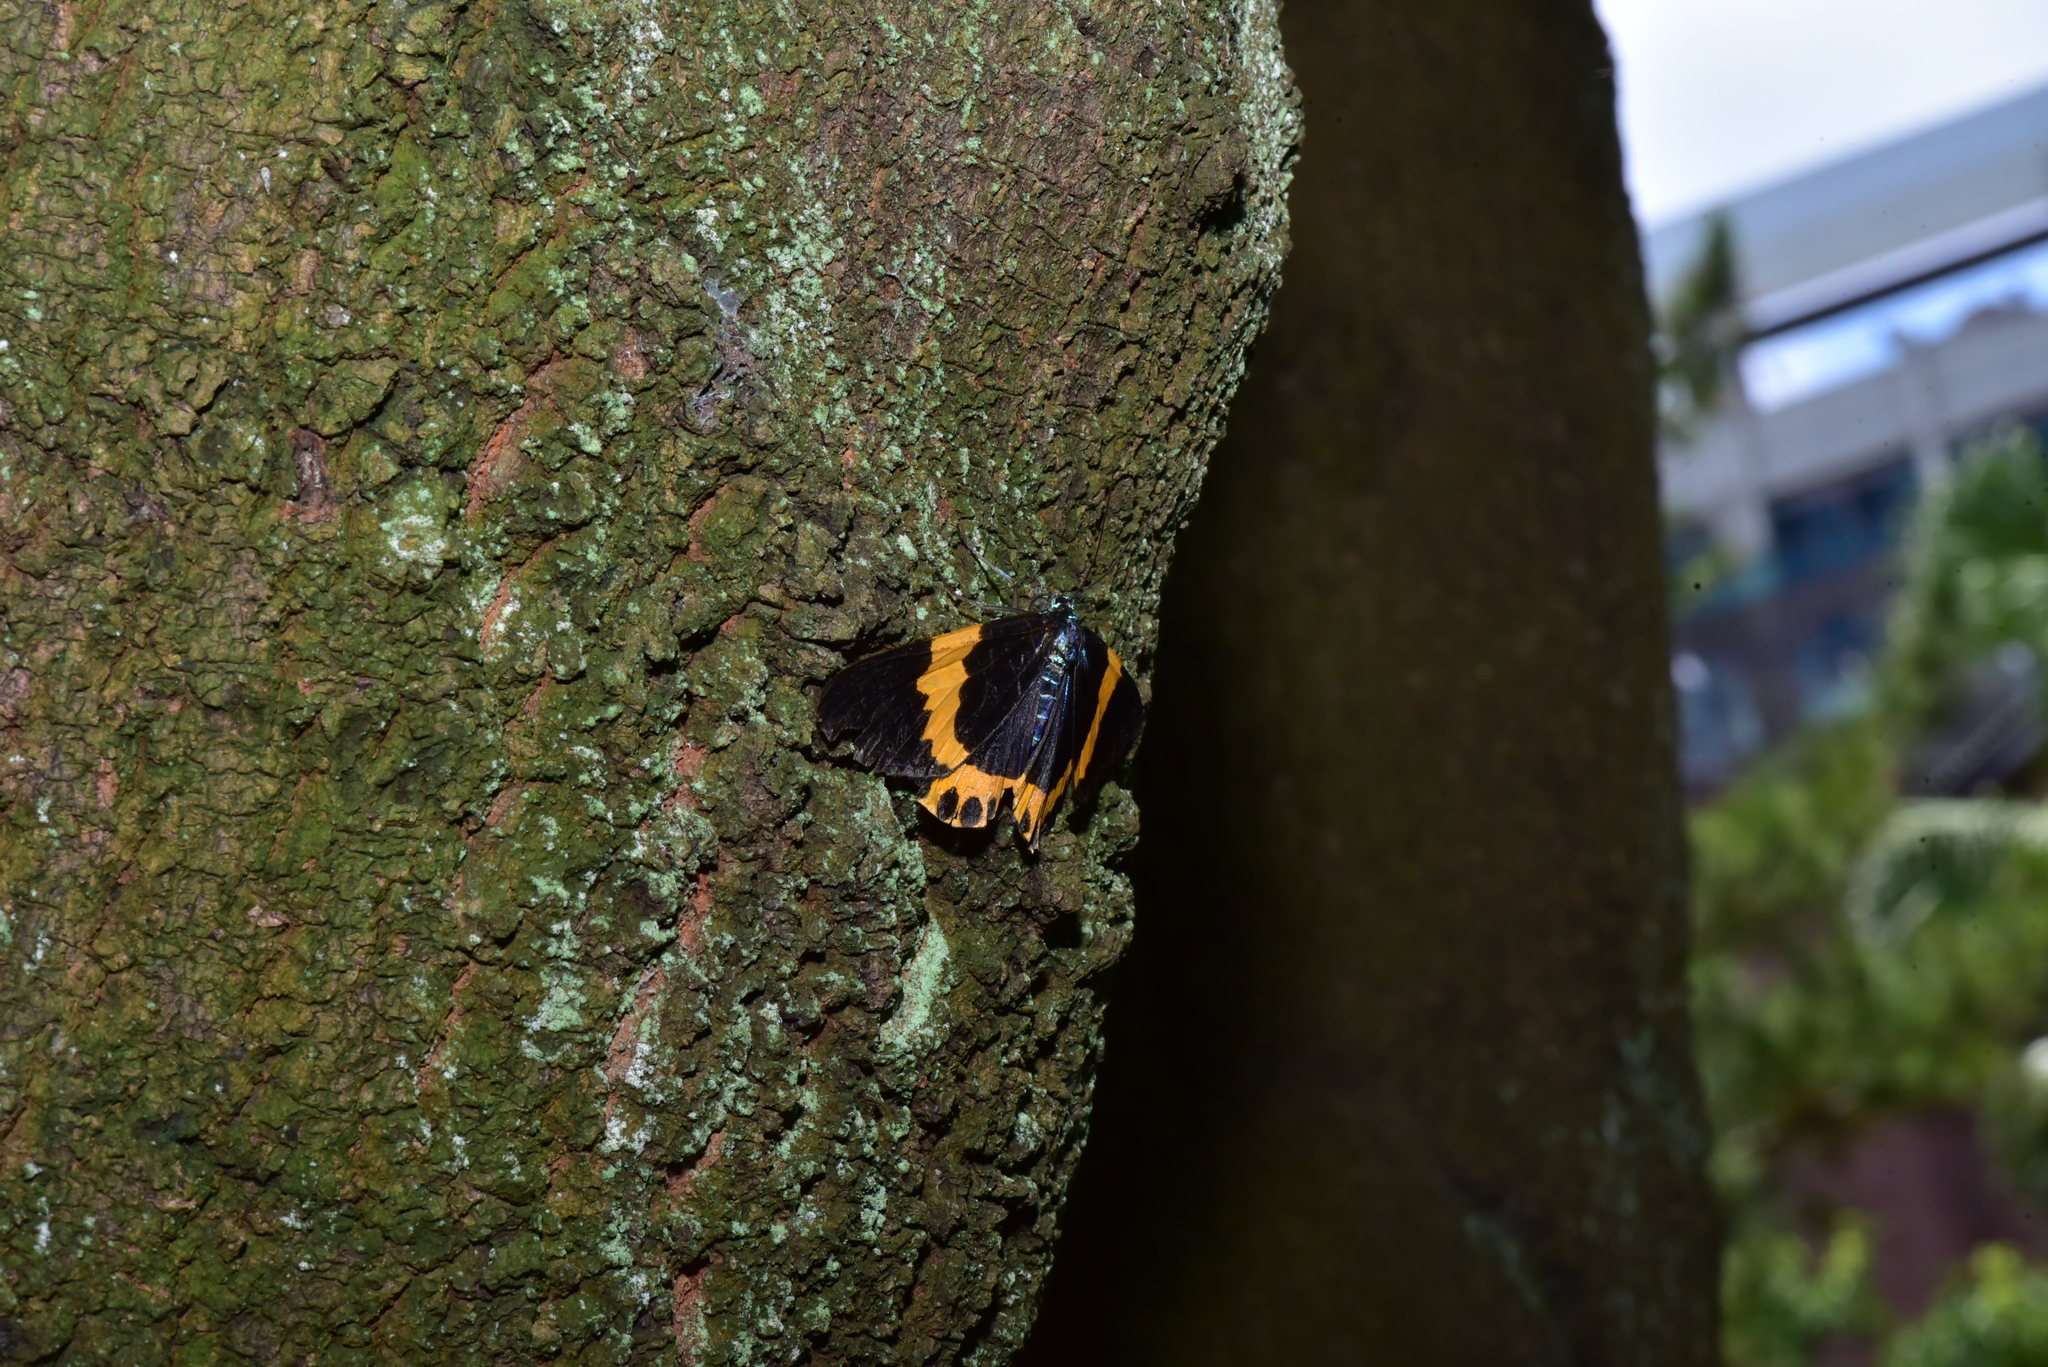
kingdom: Animalia
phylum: Arthropoda
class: Insecta
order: Lepidoptera
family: Geometridae
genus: Milionia
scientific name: Milionia basalis
